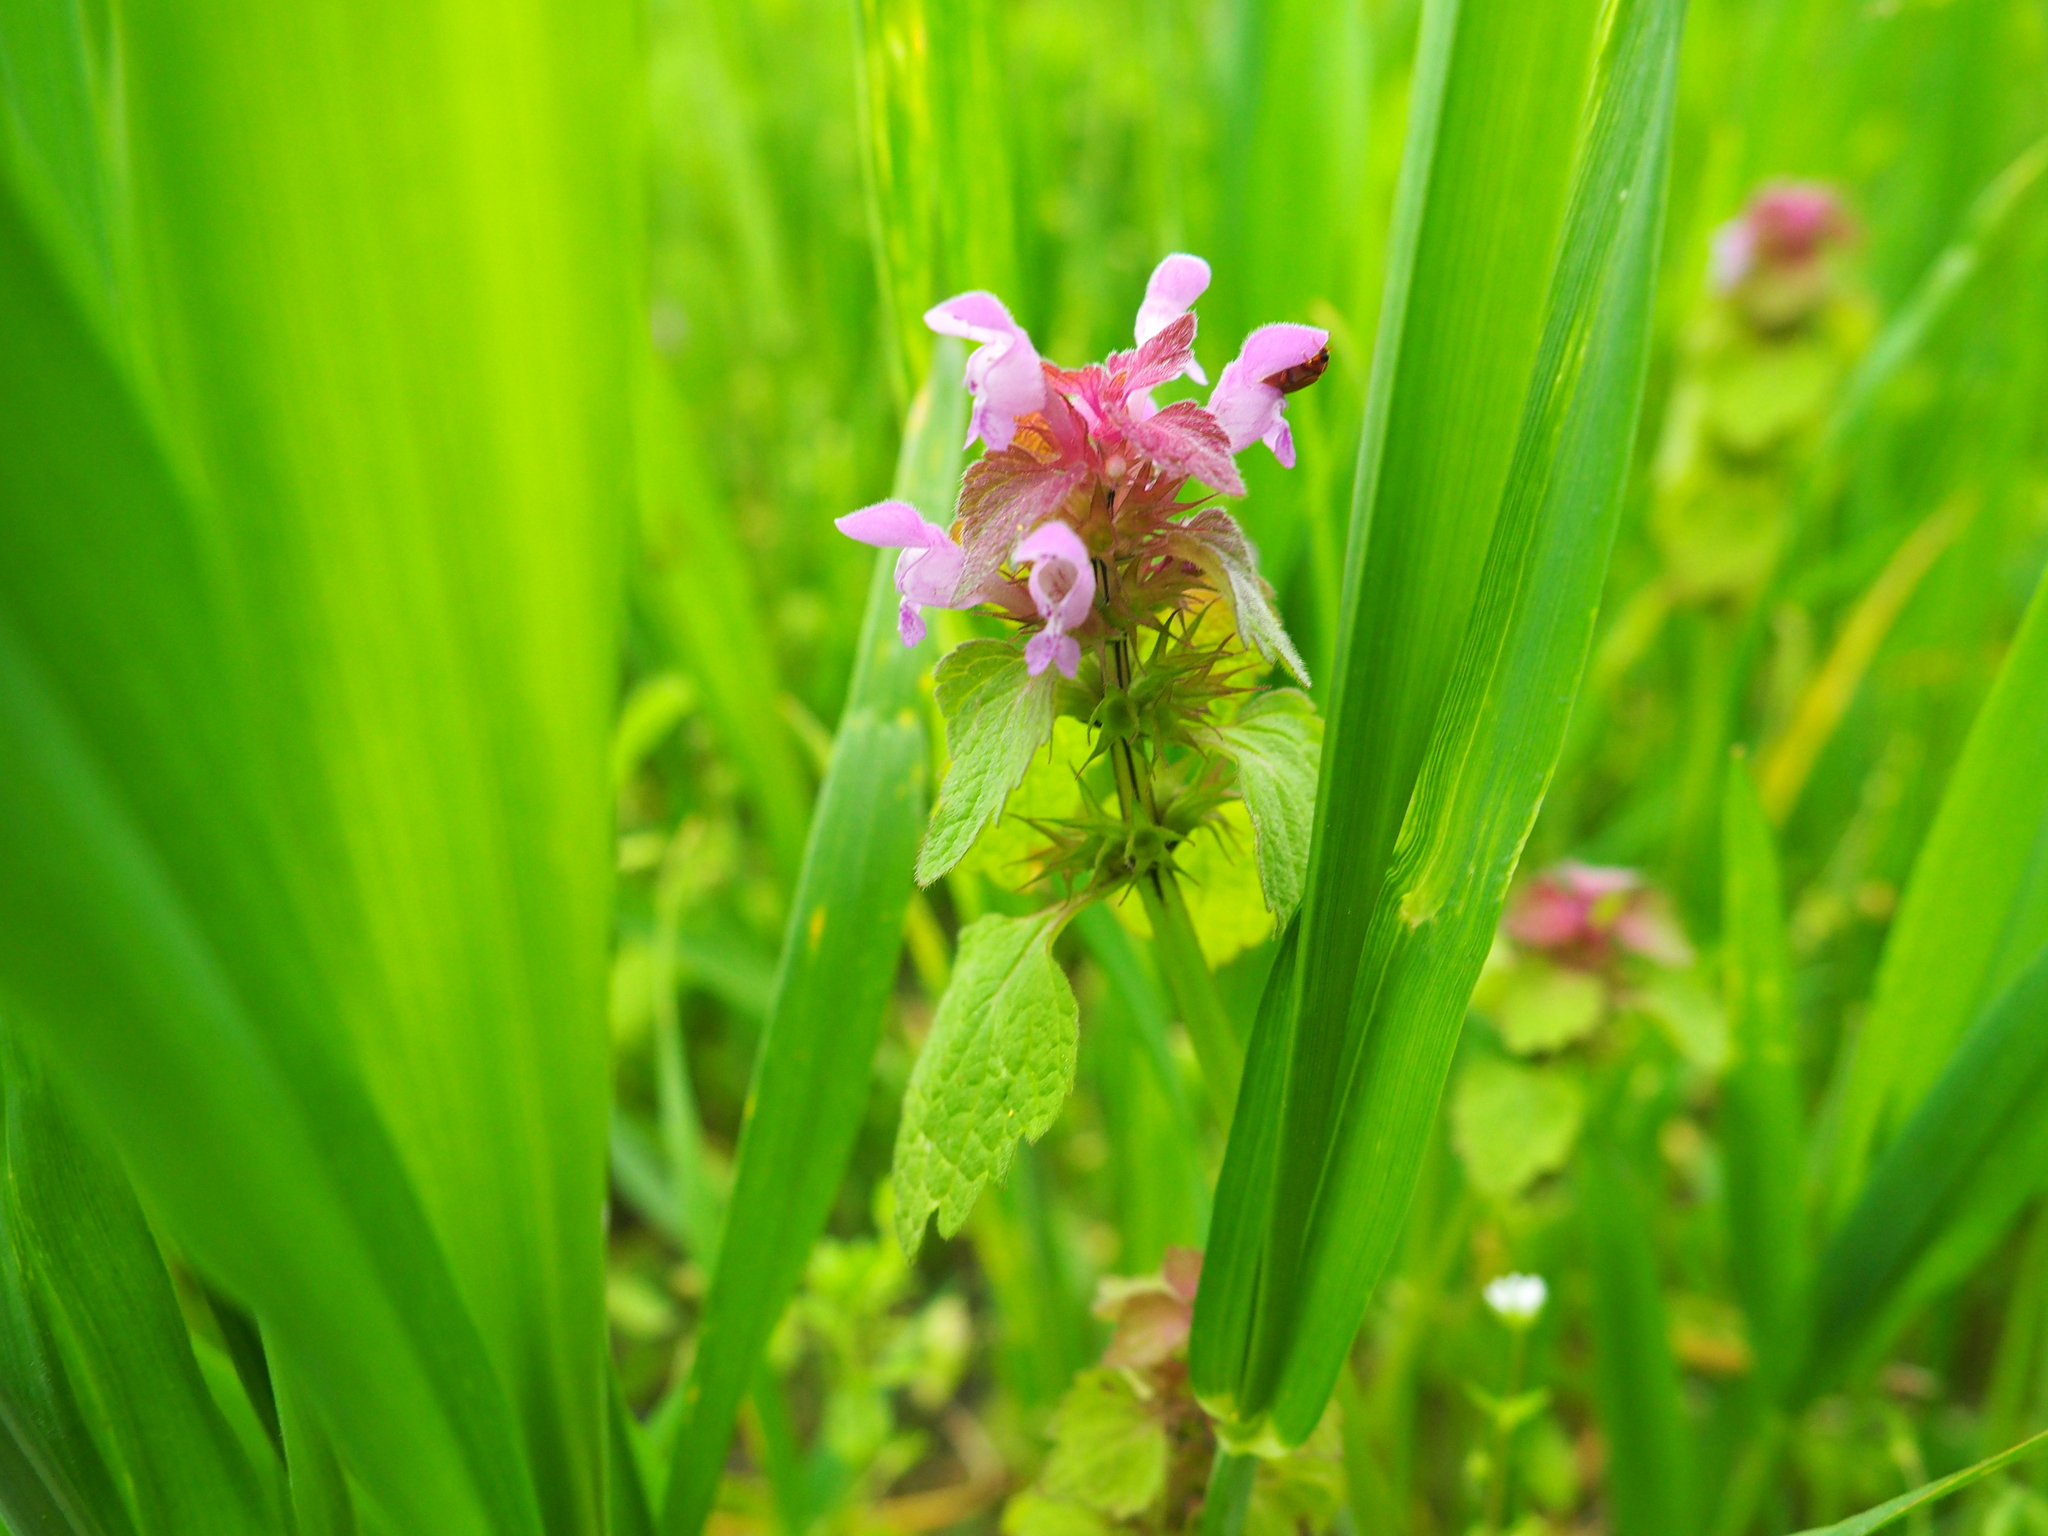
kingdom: Plantae
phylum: Tracheophyta
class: Magnoliopsida
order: Lamiales
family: Lamiaceae
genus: Lamium
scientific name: Lamium purpureum
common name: Red dead-nettle
